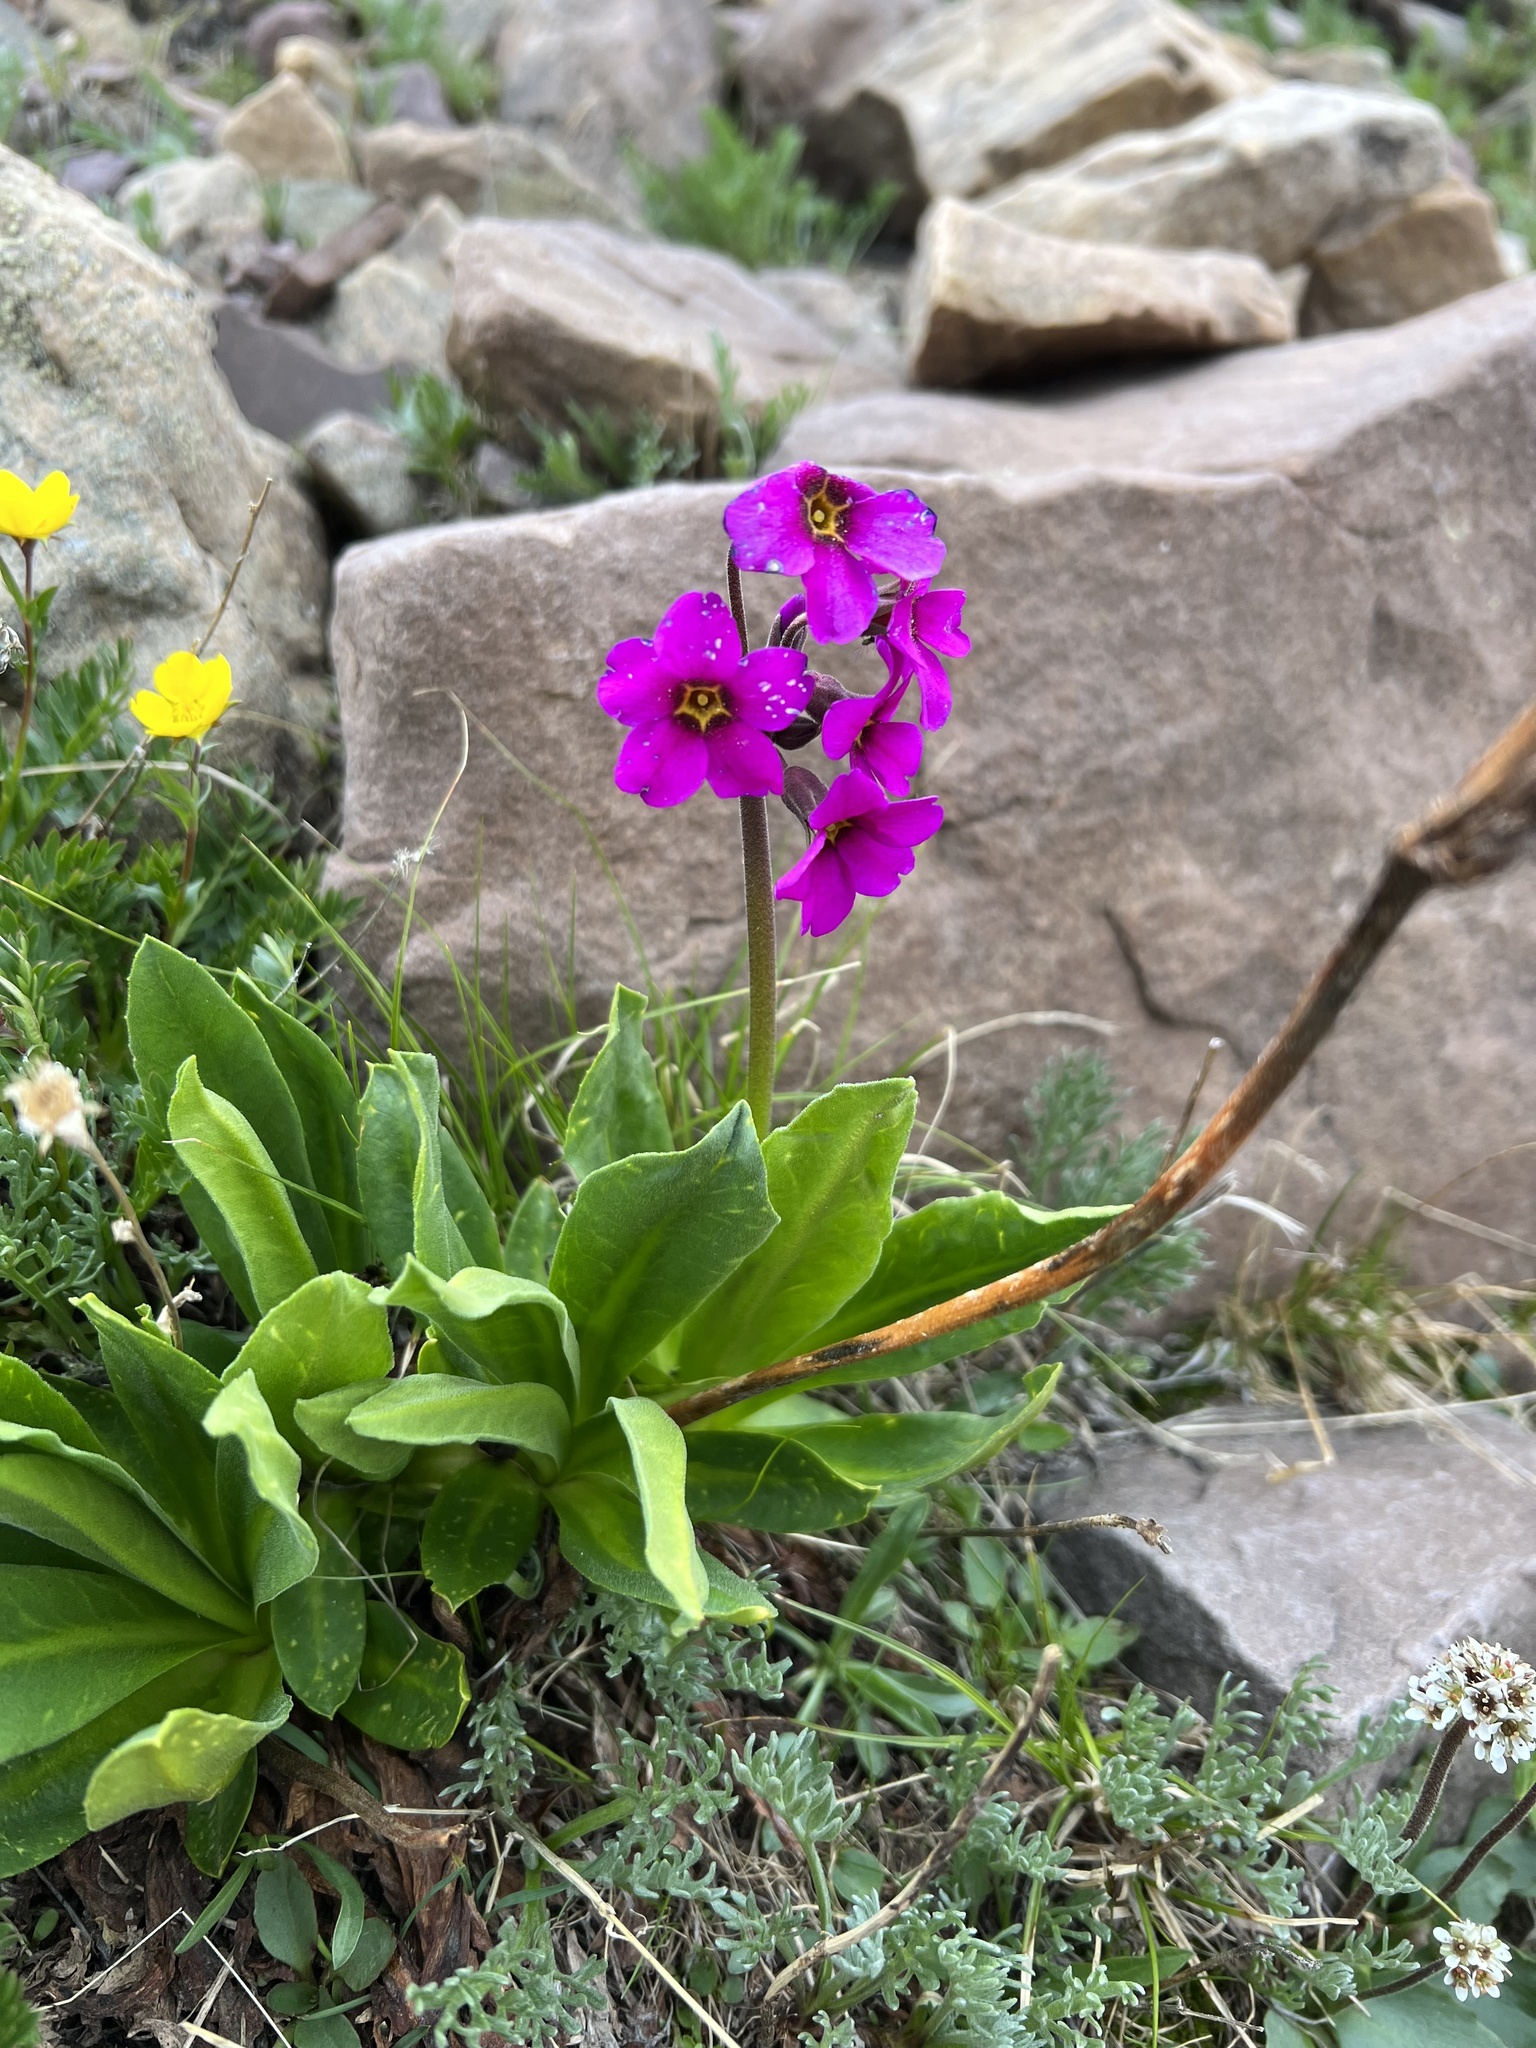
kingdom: Plantae
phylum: Tracheophyta
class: Magnoliopsida
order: Ericales
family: Primulaceae
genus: Primula
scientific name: Primula parryi
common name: Parry's primrose
